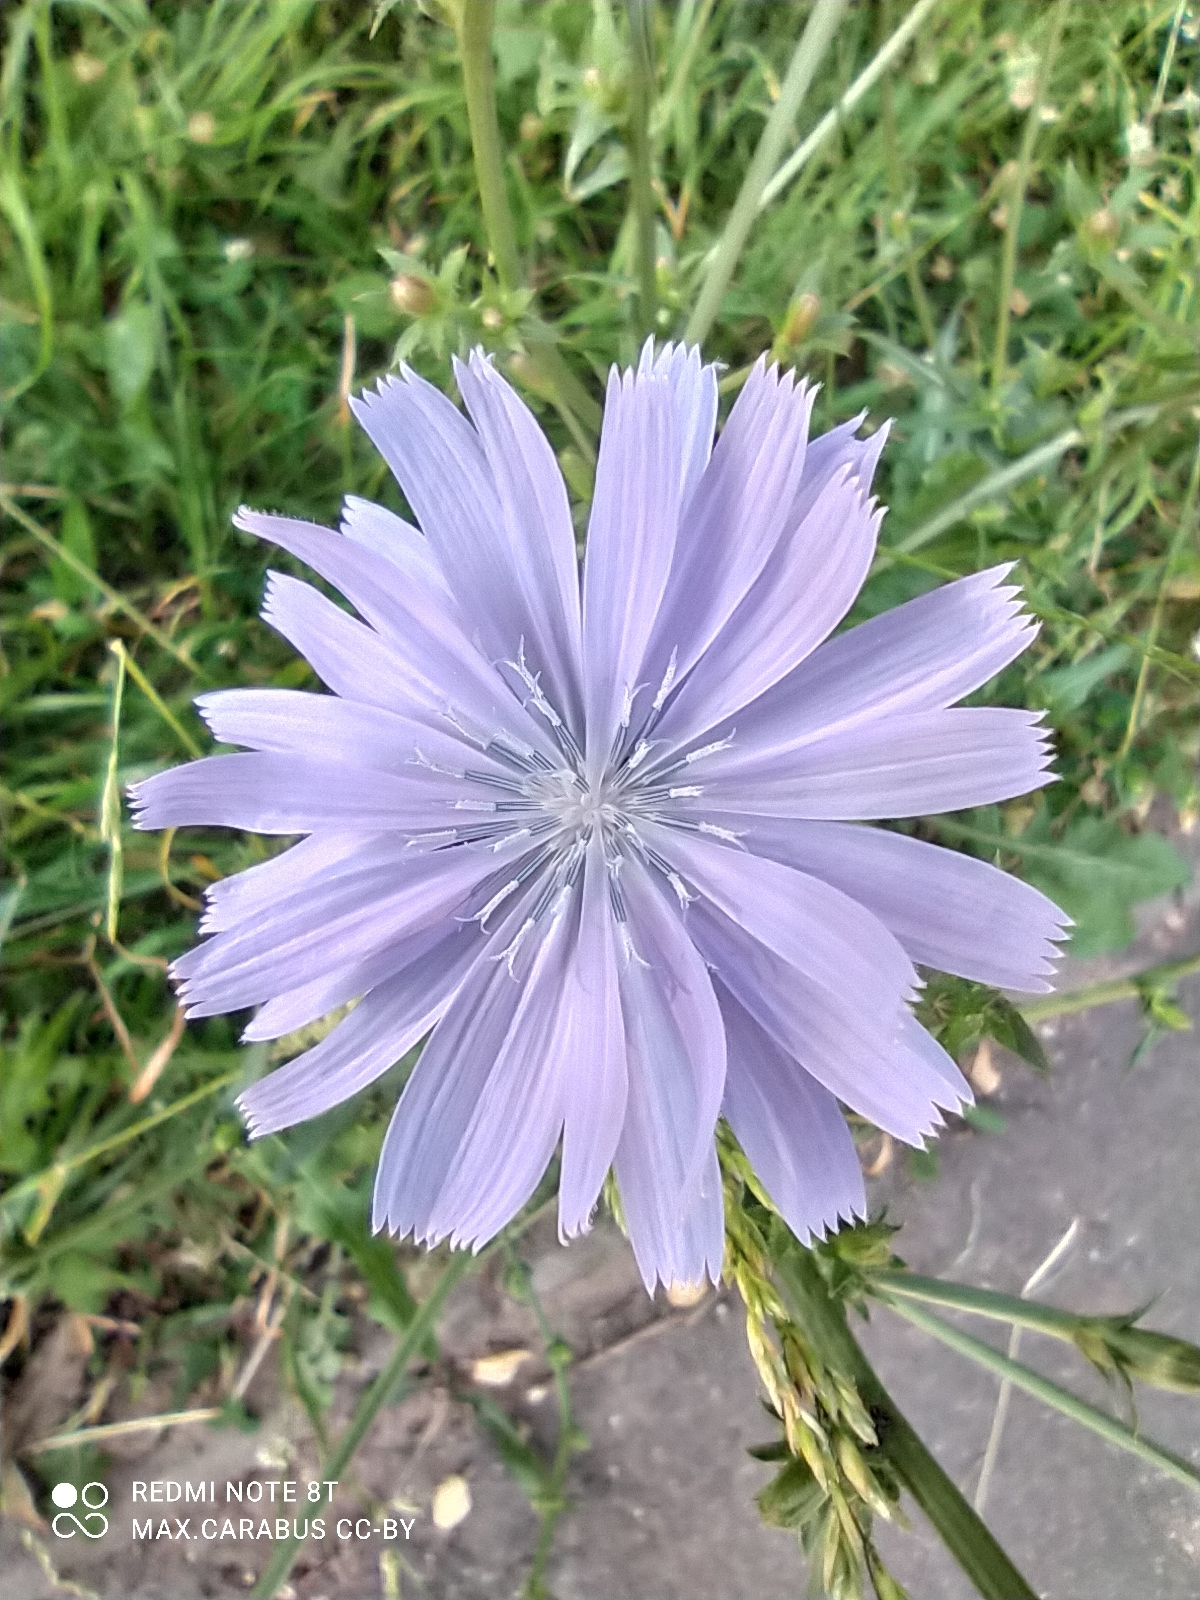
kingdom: Plantae
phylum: Tracheophyta
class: Magnoliopsida
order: Asterales
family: Asteraceae
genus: Cichorium
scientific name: Cichorium intybus
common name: Chicory
